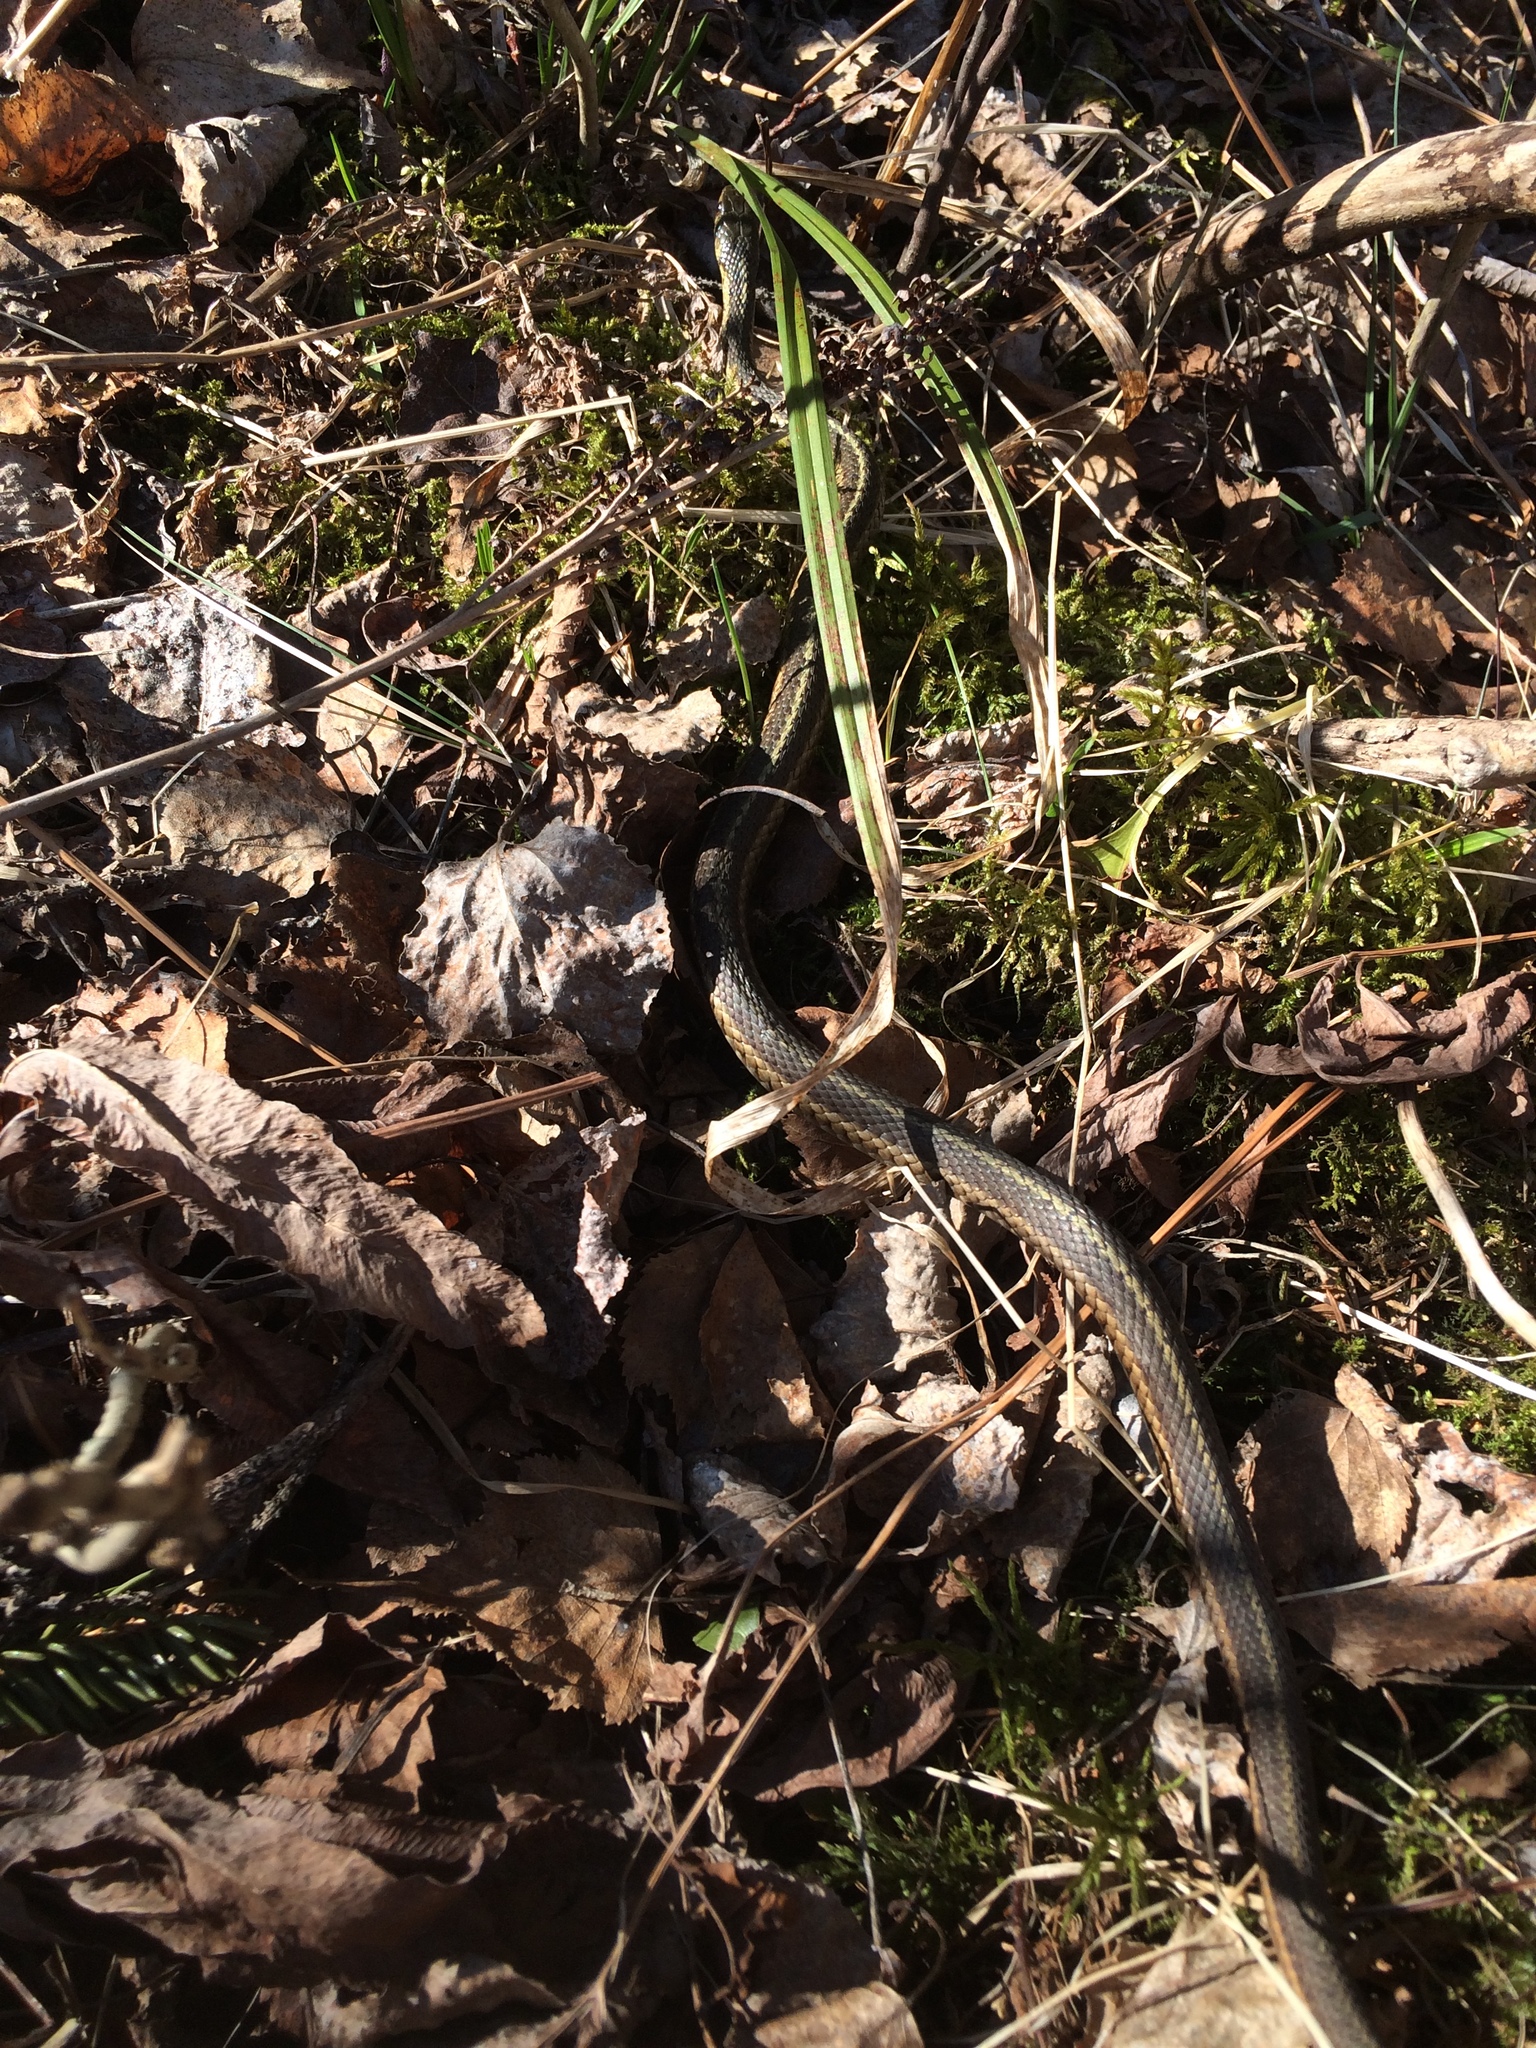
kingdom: Animalia
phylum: Chordata
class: Squamata
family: Colubridae
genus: Thamnophis
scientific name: Thamnophis sirtalis
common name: Common garter snake
